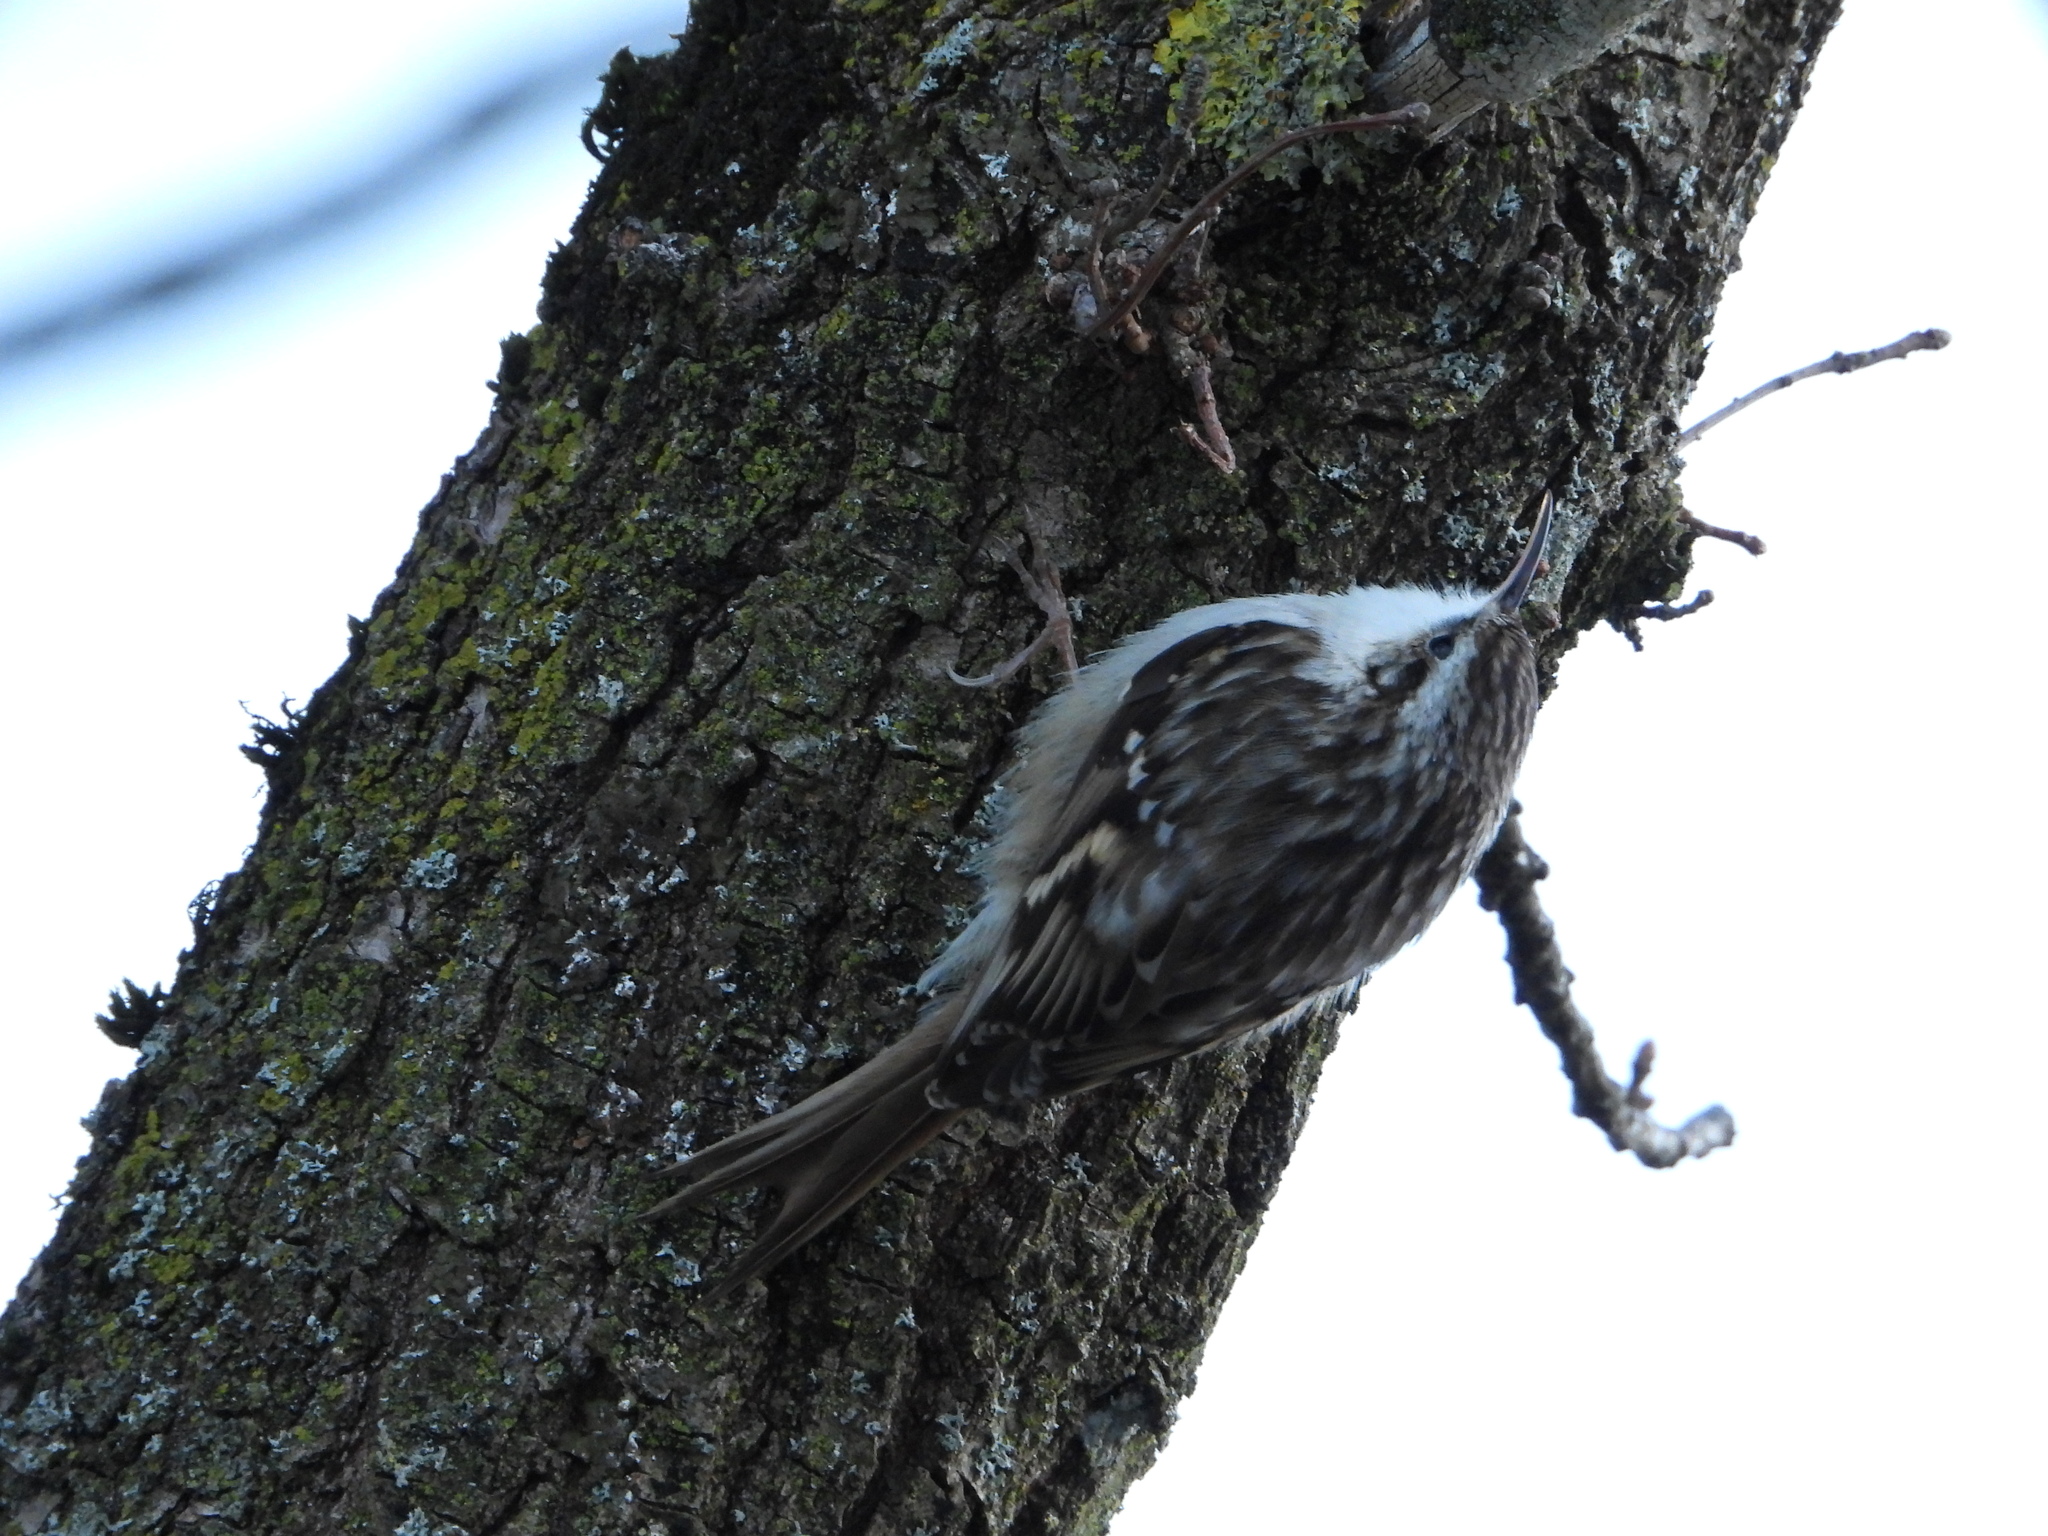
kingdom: Animalia
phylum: Chordata
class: Aves
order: Passeriformes
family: Certhiidae
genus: Certhia
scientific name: Certhia brachydactyla
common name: Short-toed treecreeper
